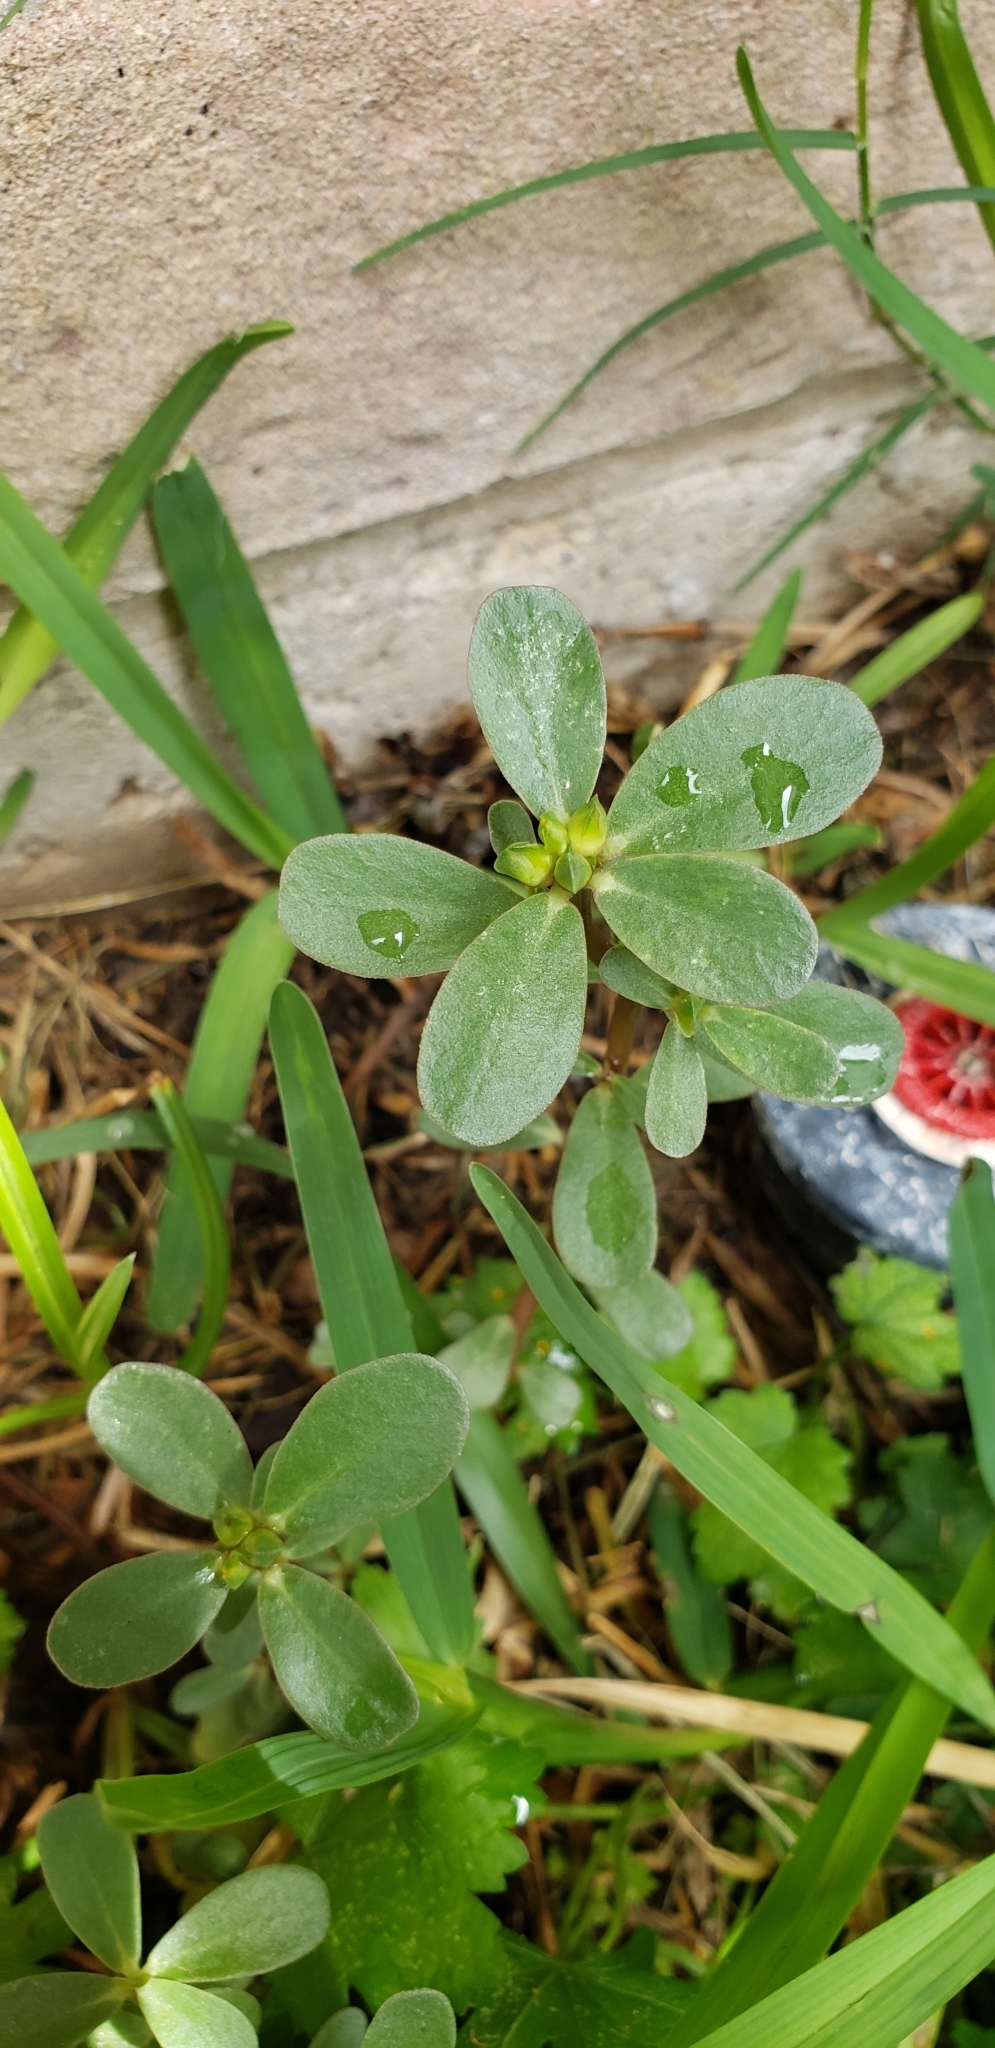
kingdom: Plantae
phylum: Tracheophyta
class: Magnoliopsida
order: Caryophyllales
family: Portulacaceae
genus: Portulaca
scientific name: Portulaca oleracea
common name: Common purslane
